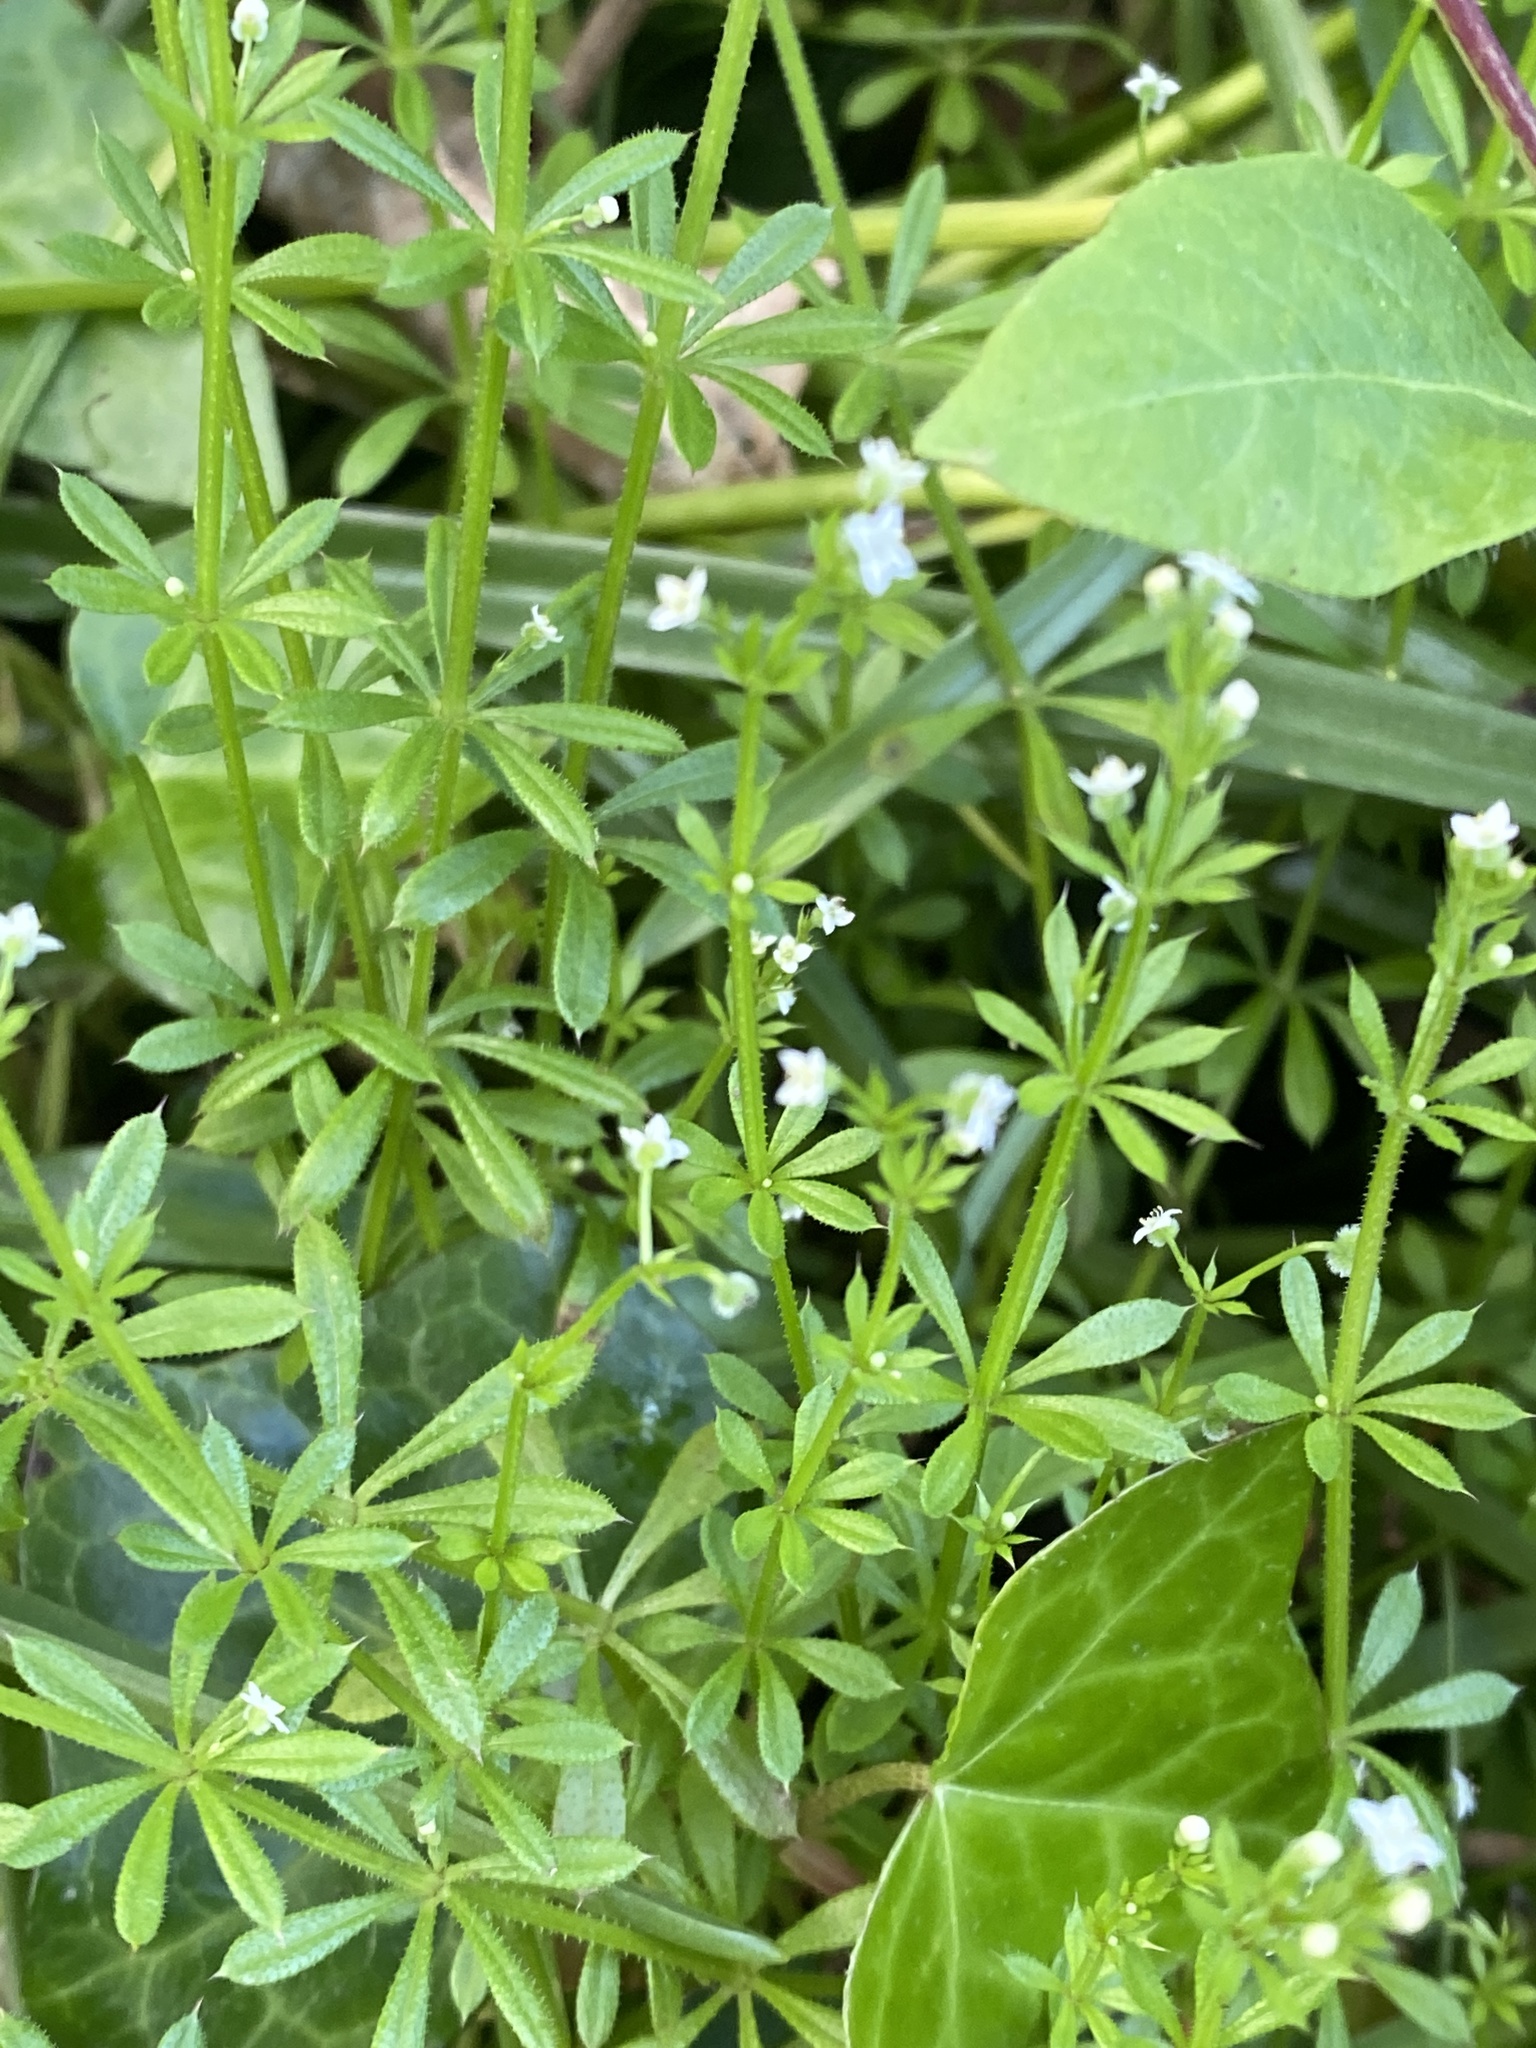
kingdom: Plantae
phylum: Tracheophyta
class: Magnoliopsida
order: Gentianales
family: Rubiaceae
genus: Galium
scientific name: Galium aparine
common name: Cleavers
